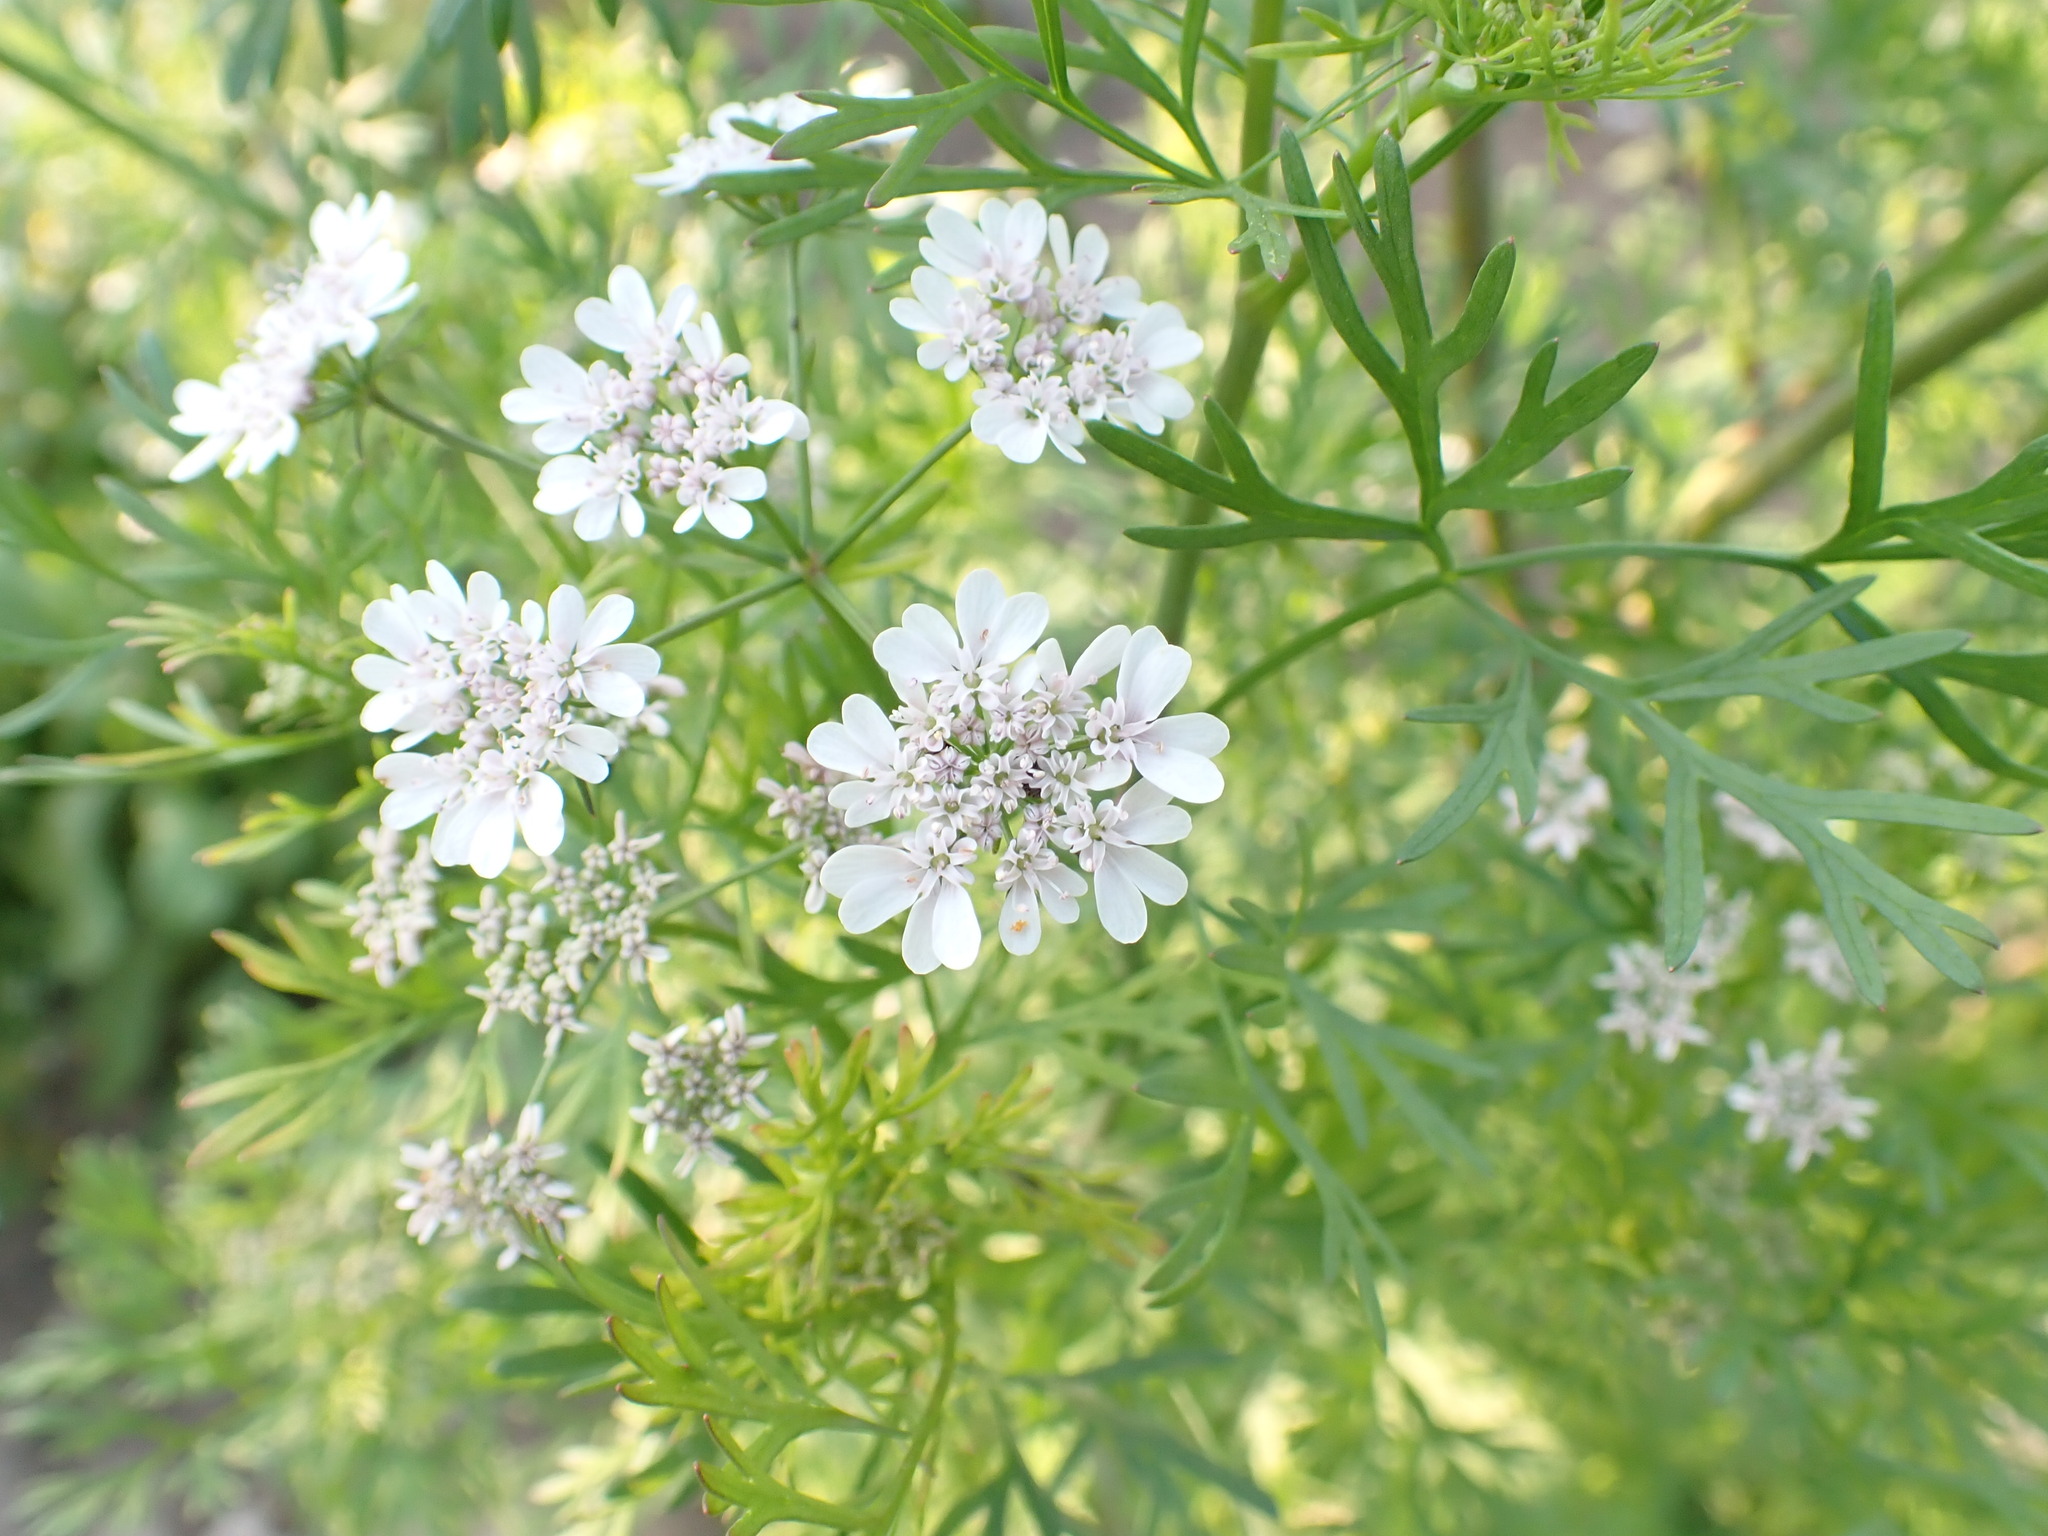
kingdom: Plantae
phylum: Tracheophyta
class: Magnoliopsida
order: Apiales
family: Apiaceae
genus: Coriandrum
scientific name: Coriandrum sativum
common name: Coriander
